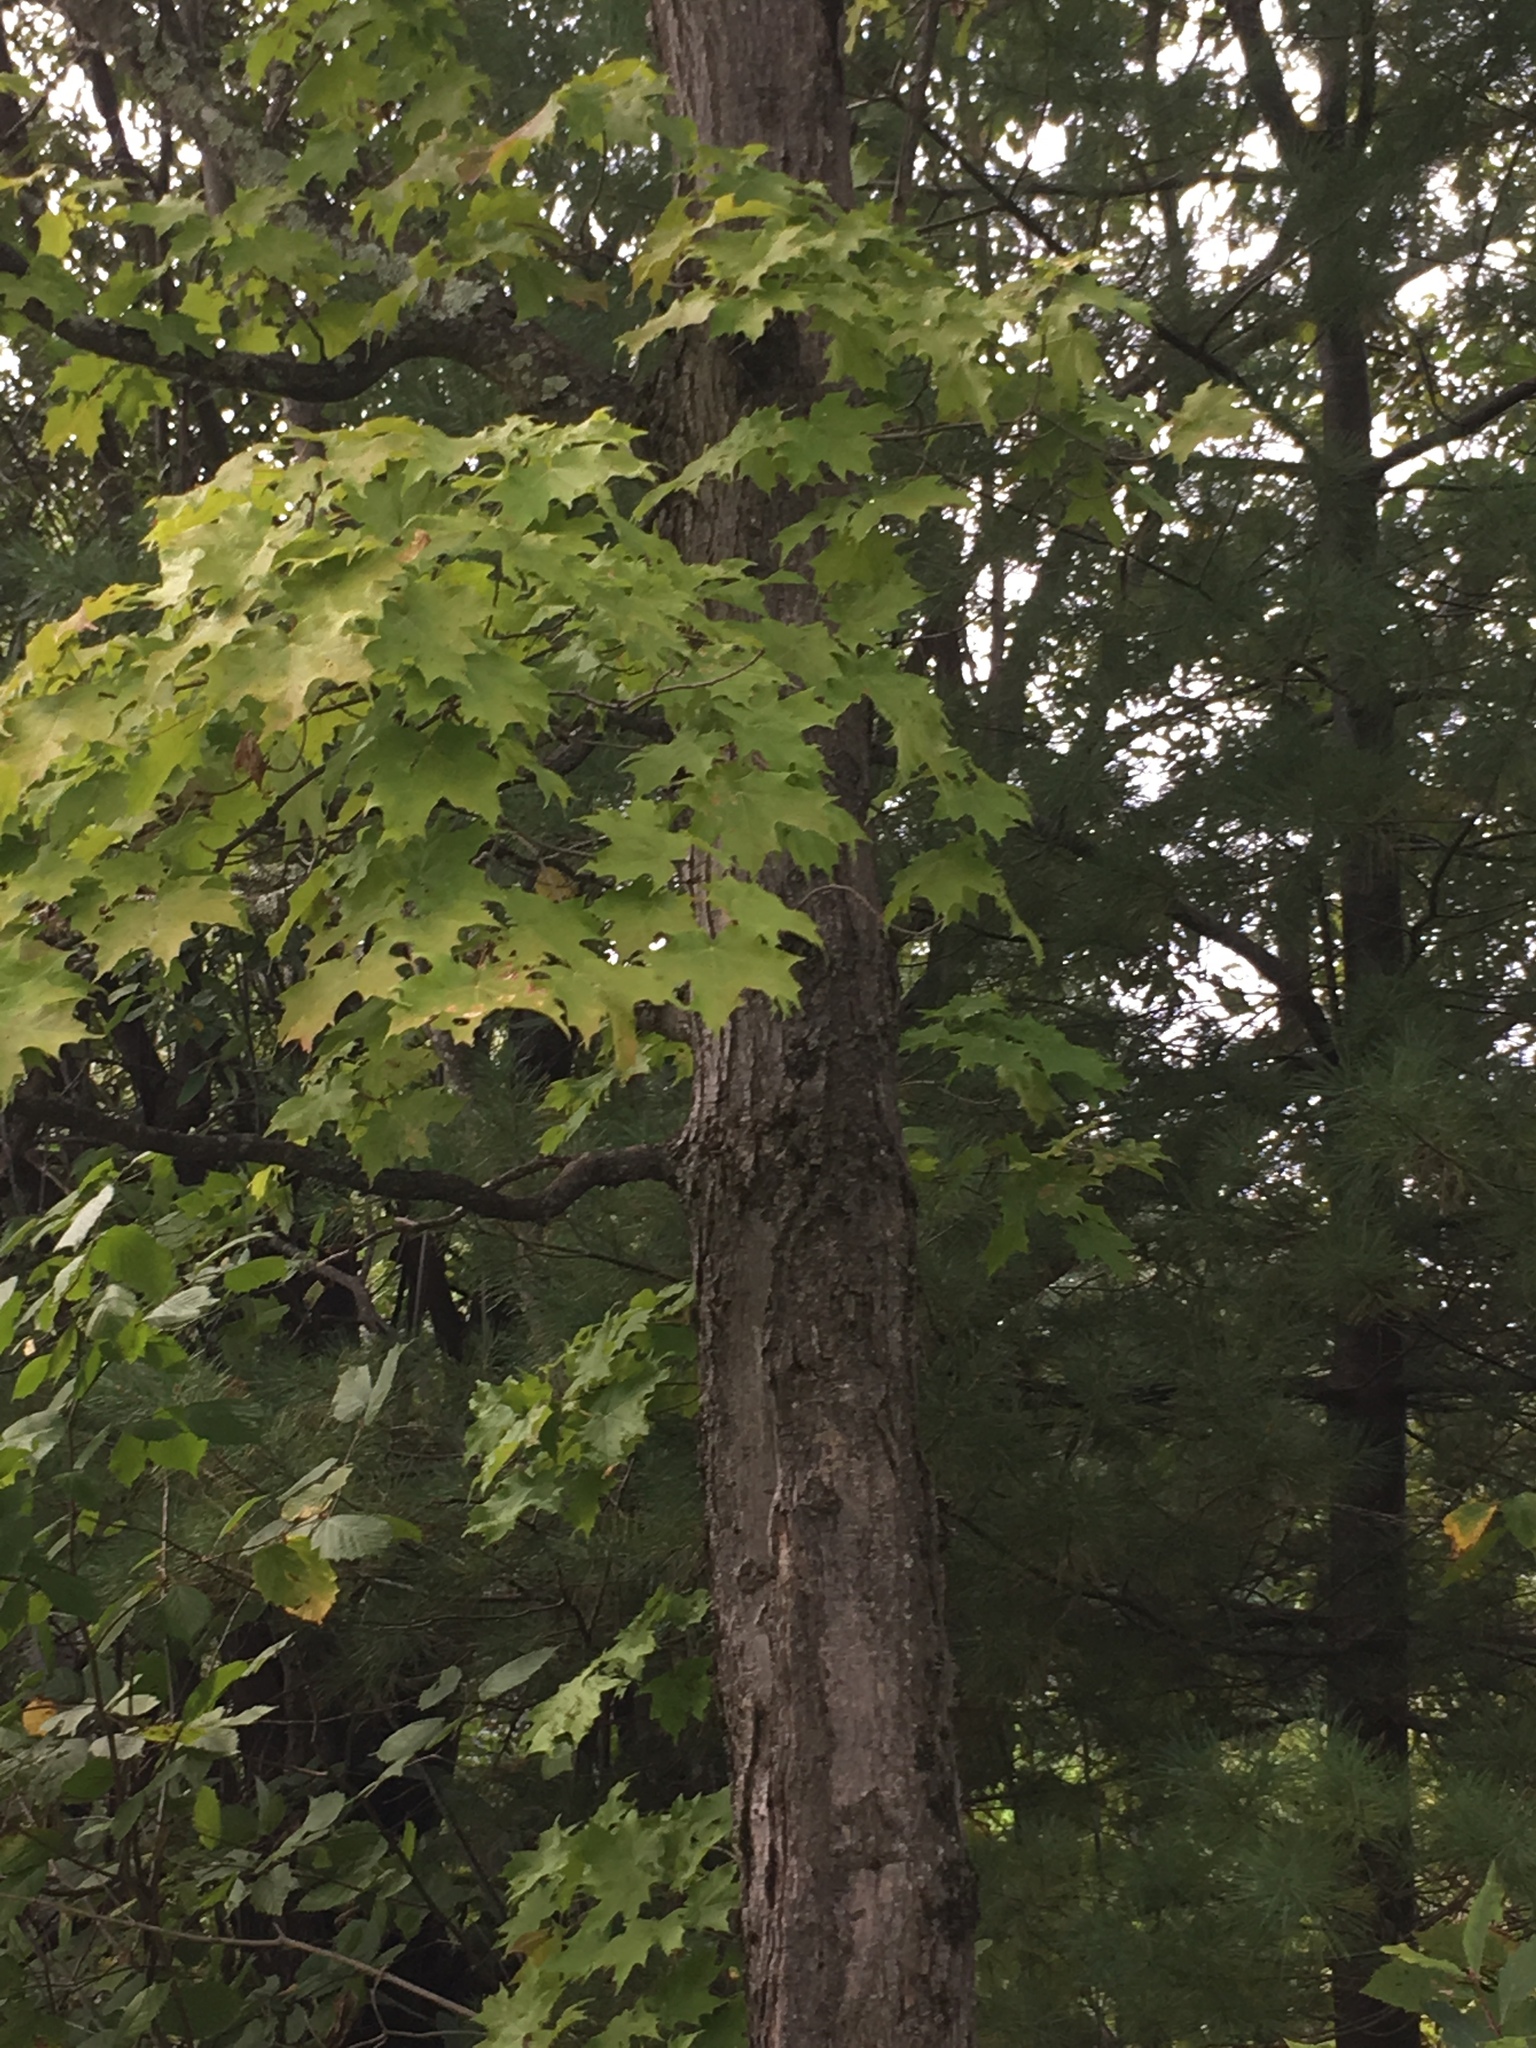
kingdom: Plantae
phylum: Tracheophyta
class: Magnoliopsida
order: Sapindales
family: Sapindaceae
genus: Acer
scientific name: Acer saccharum
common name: Sugar maple
